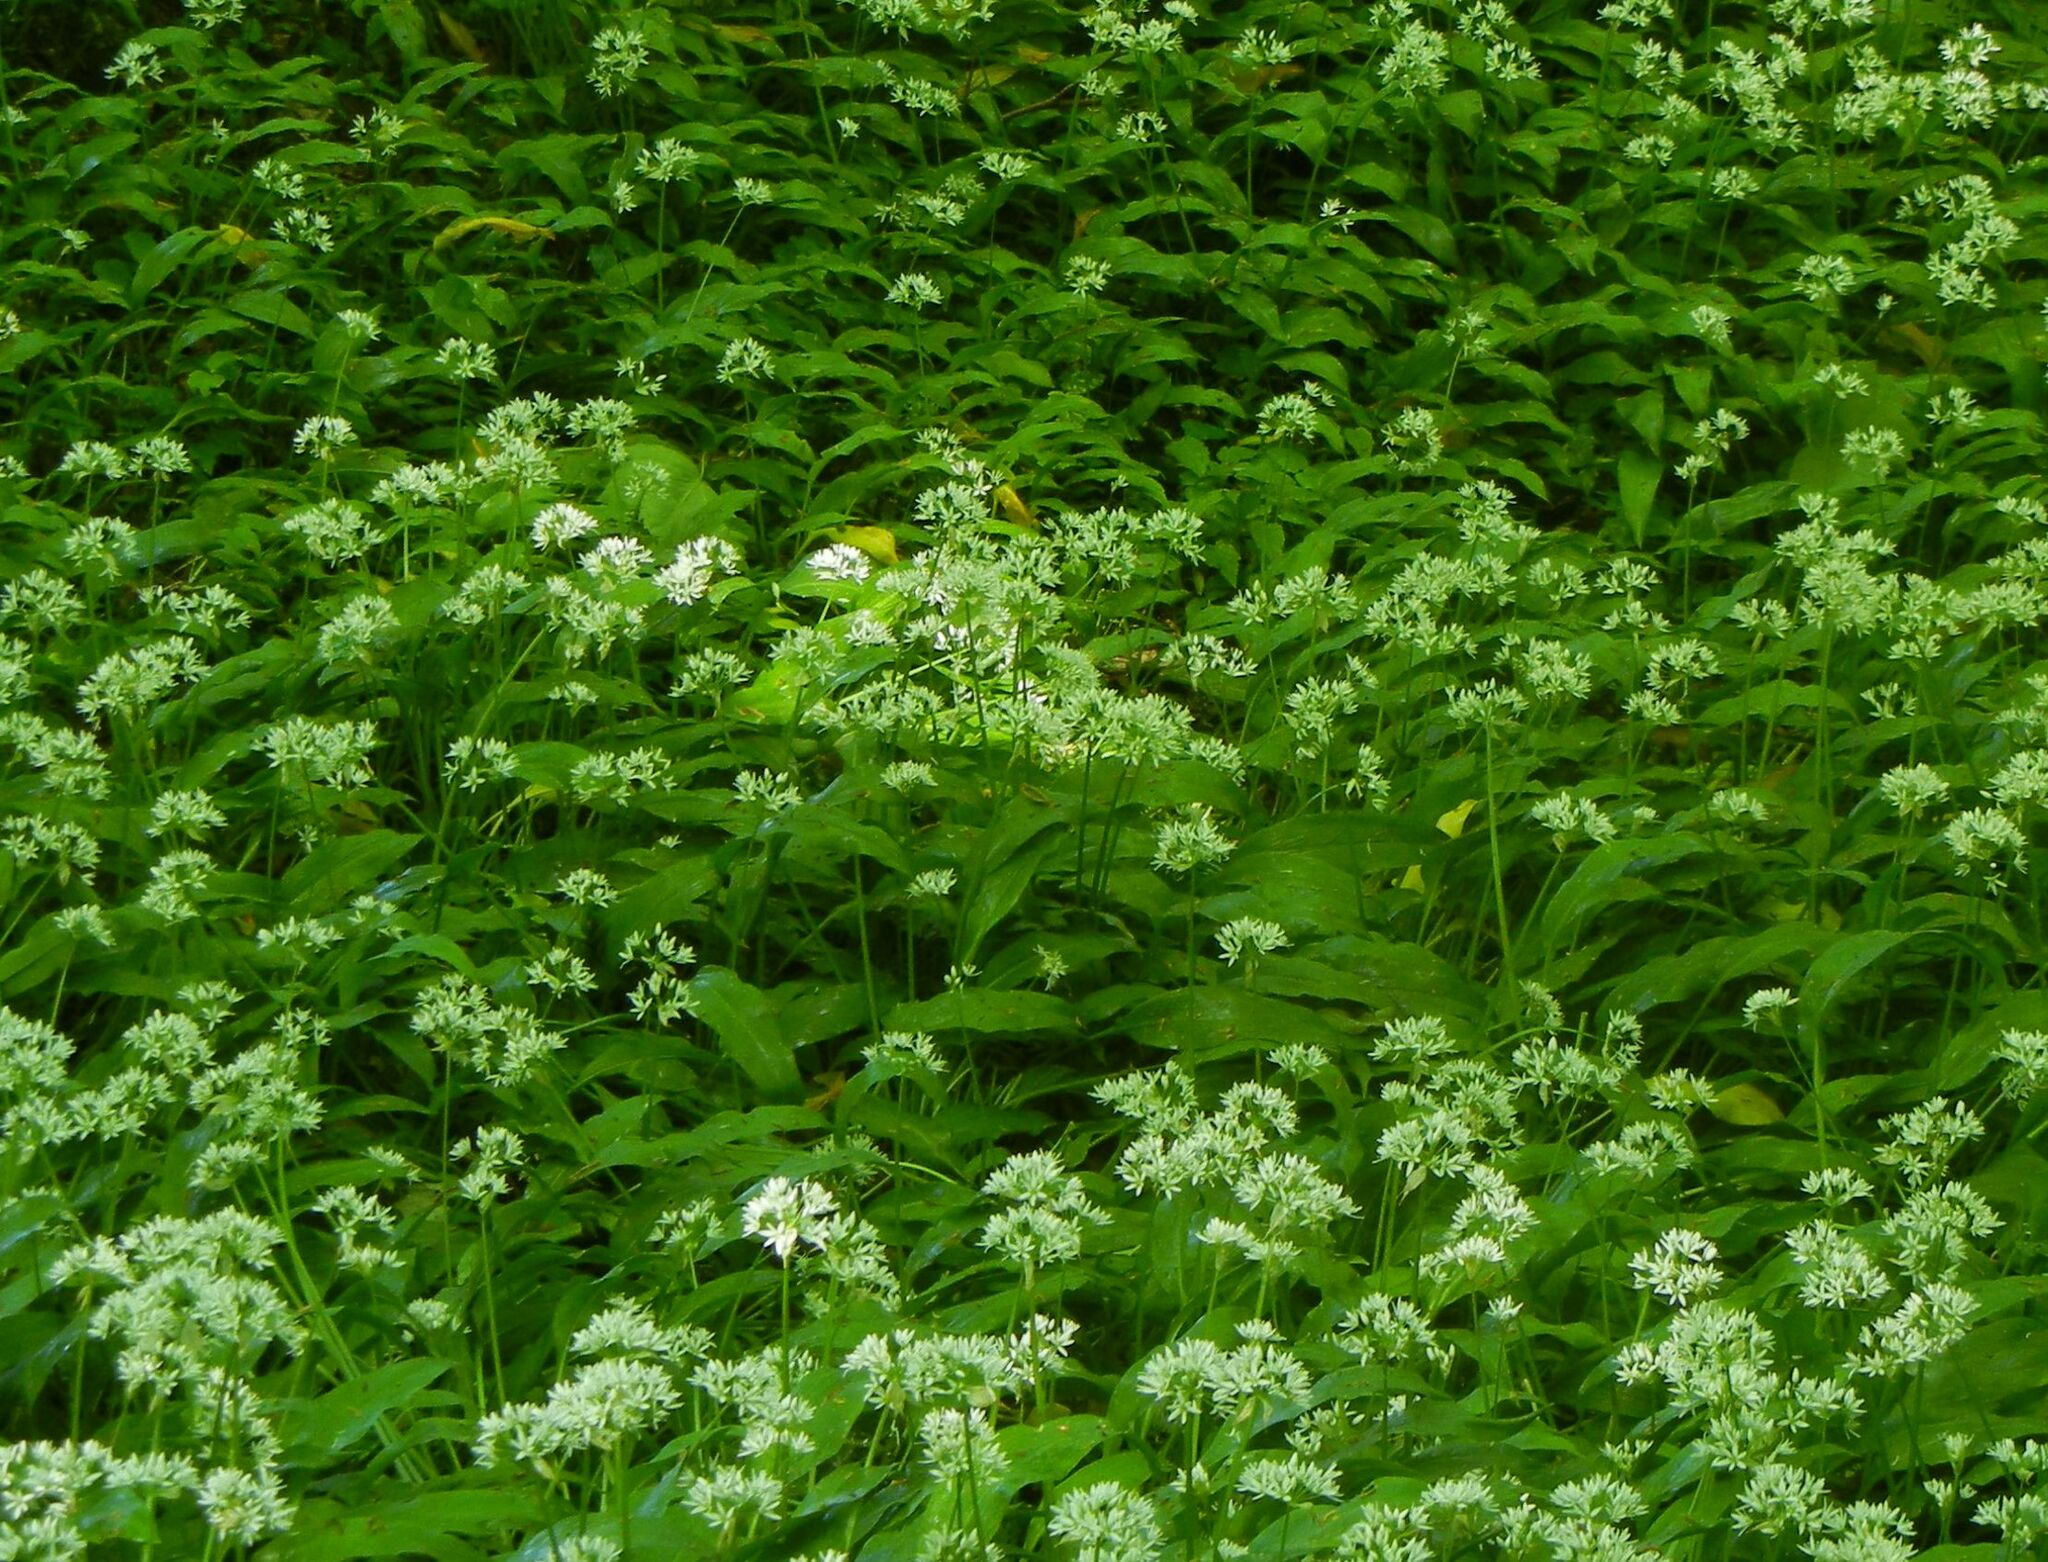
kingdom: Plantae
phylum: Tracheophyta
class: Liliopsida
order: Asparagales
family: Amaryllidaceae
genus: Allium
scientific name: Allium ursinum
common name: Ramsons
